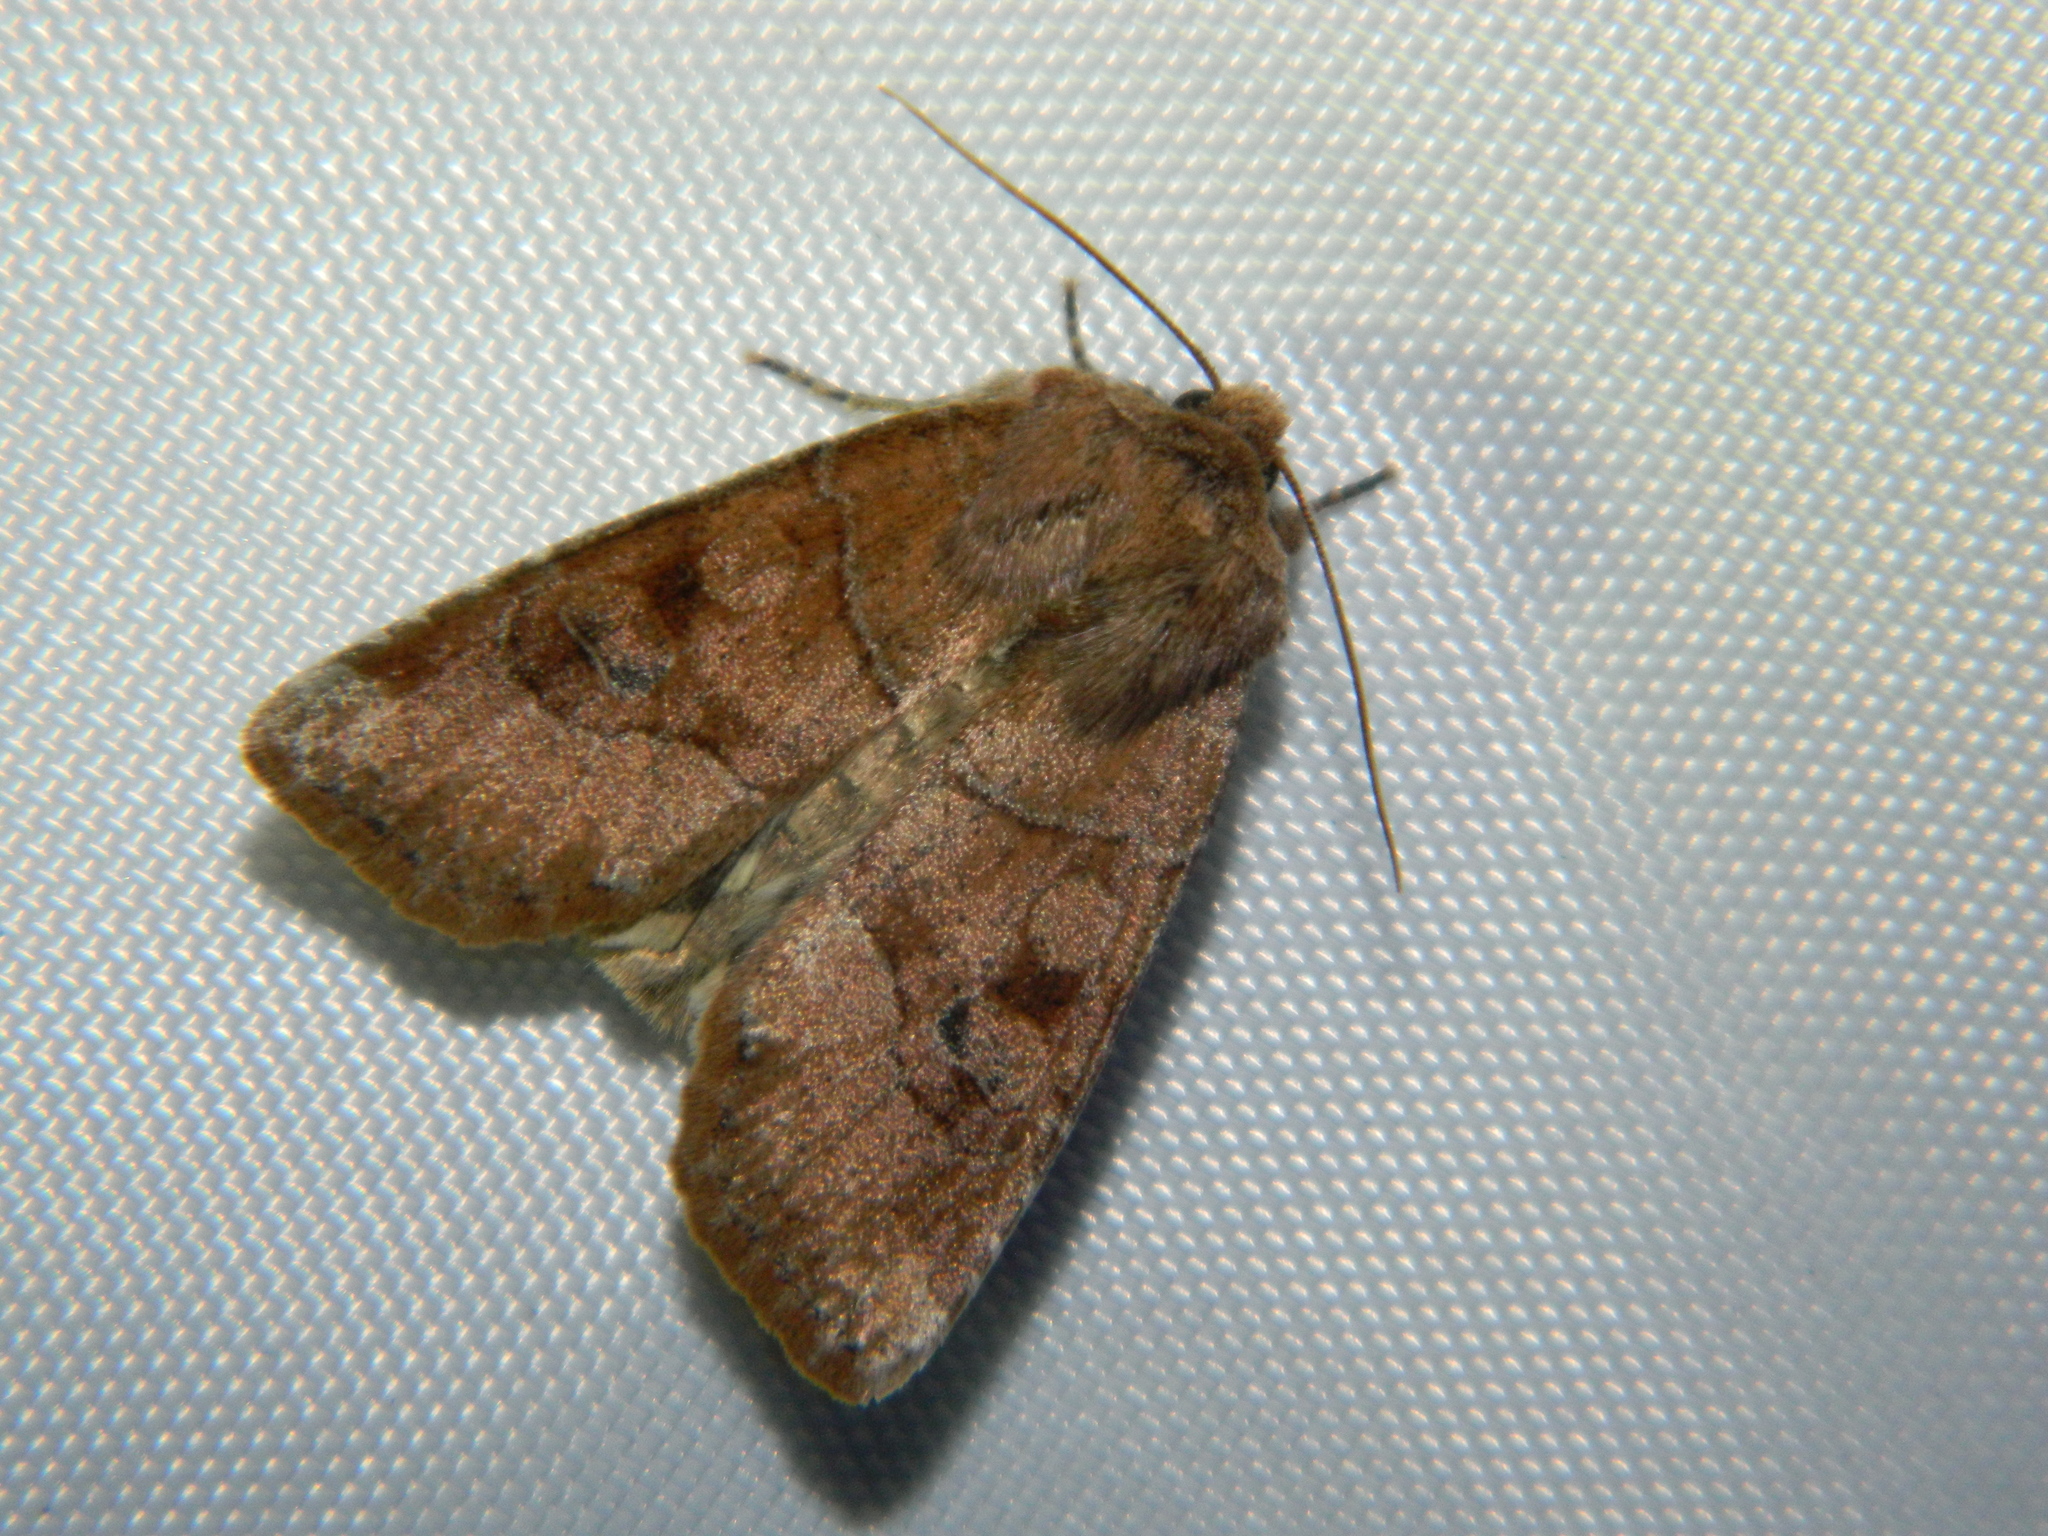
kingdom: Animalia
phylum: Arthropoda
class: Insecta
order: Lepidoptera
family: Noctuidae
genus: Crocigrapha
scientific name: Crocigrapha normani
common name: Norman's quaker
